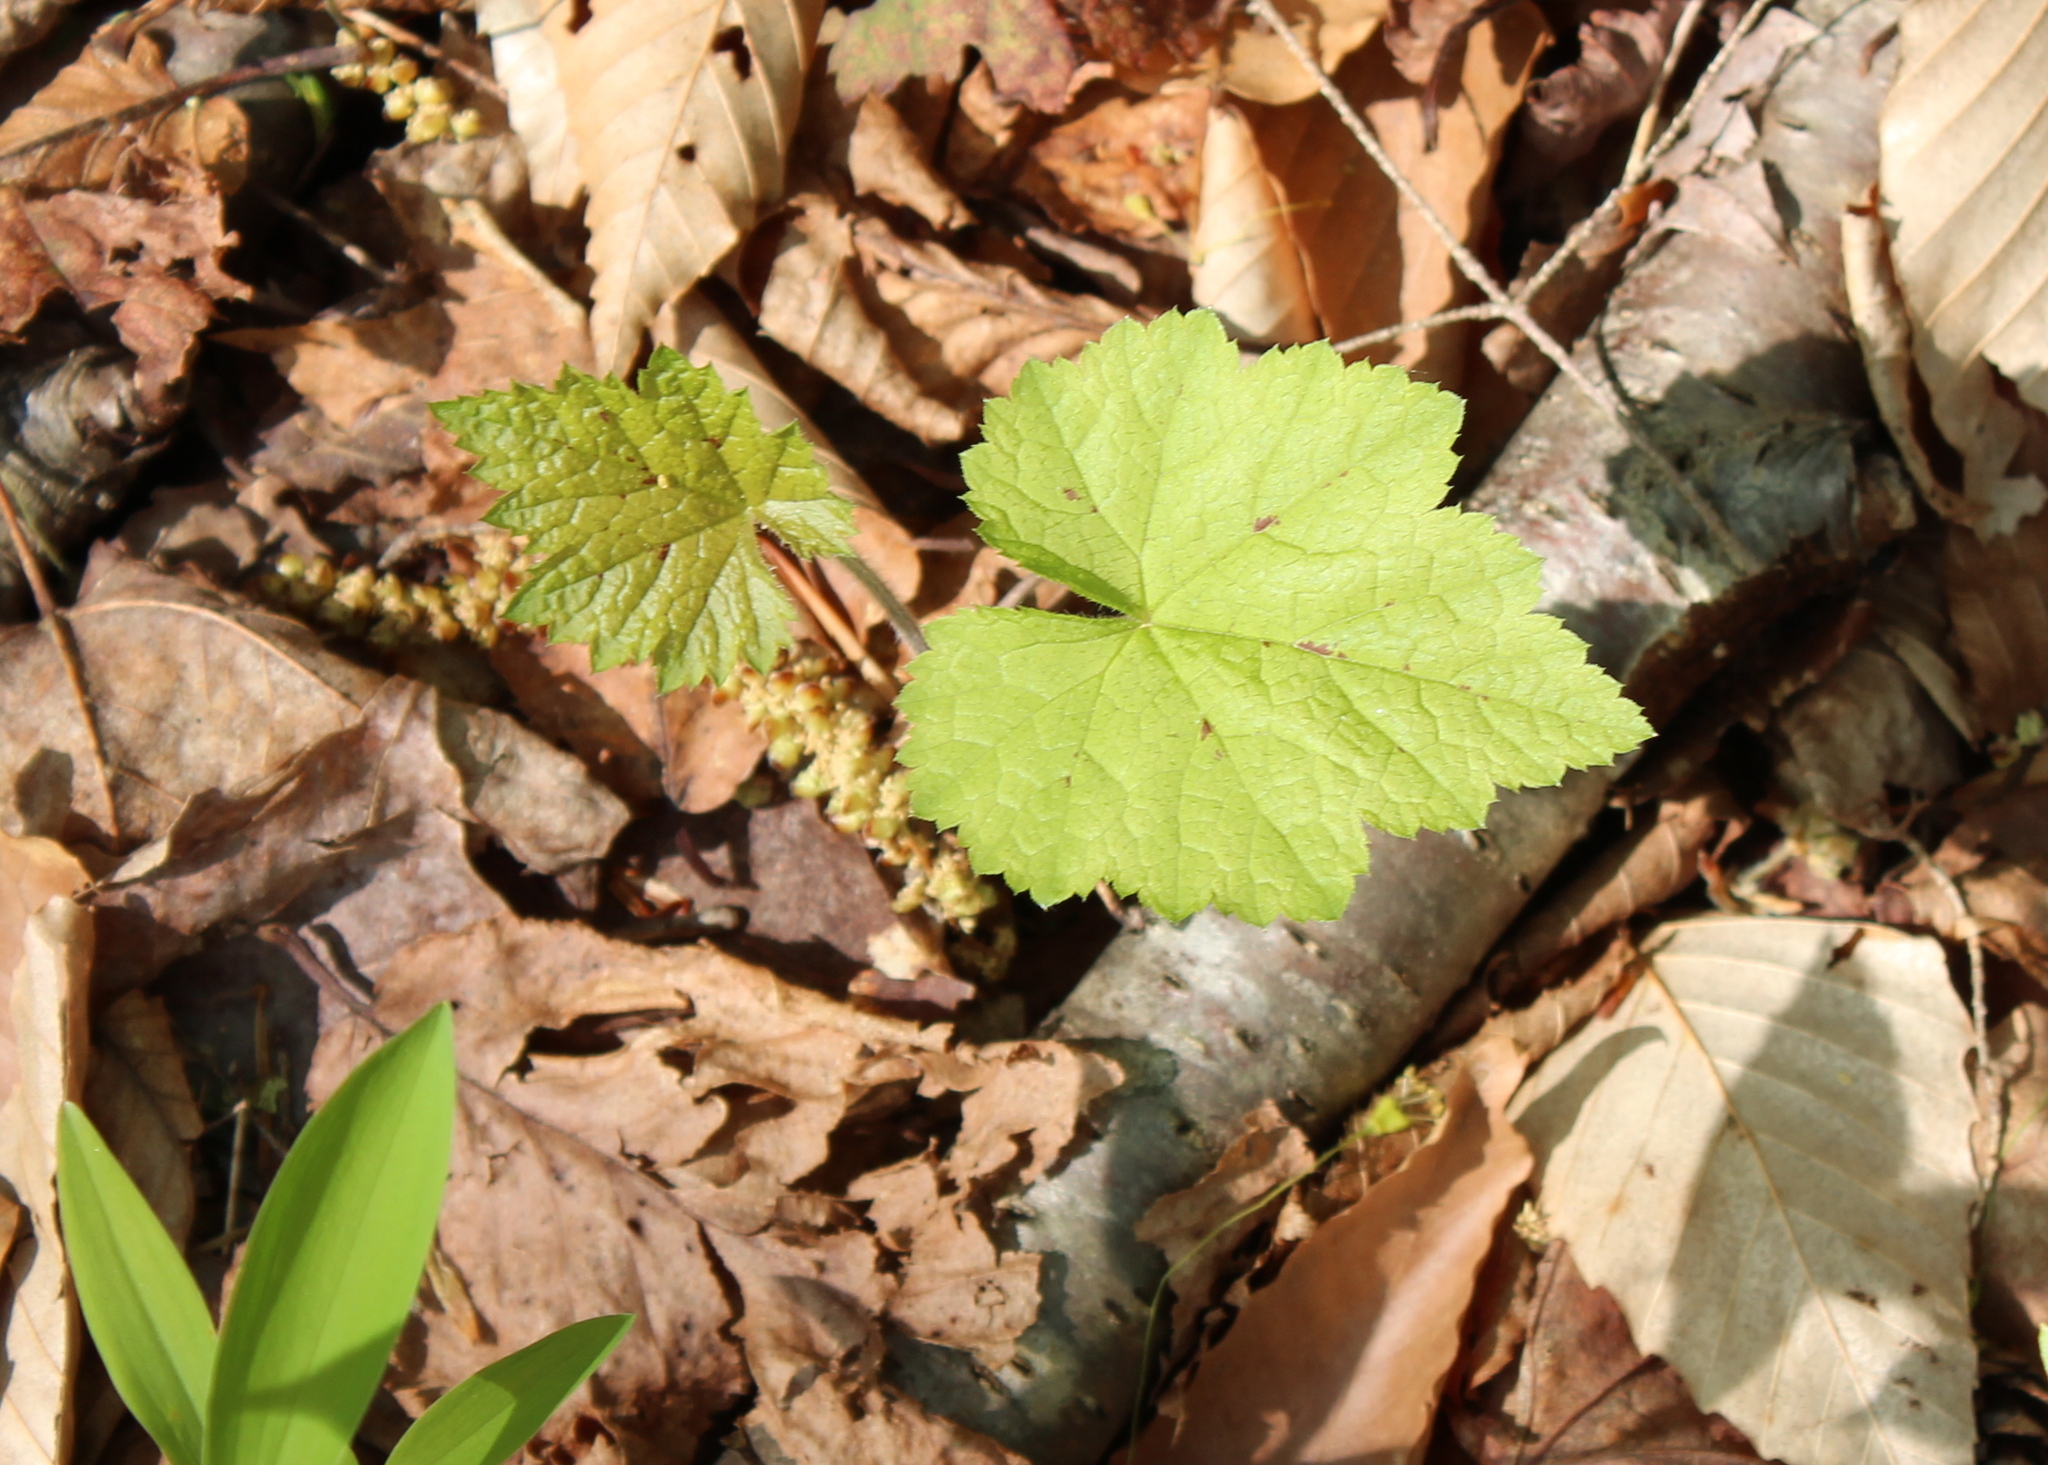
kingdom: Plantae
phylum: Tracheophyta
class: Magnoliopsida
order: Saxifragales
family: Saxifragaceae
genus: Tiarella
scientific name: Tiarella stolonifera
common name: Stoloniferous foamflower
